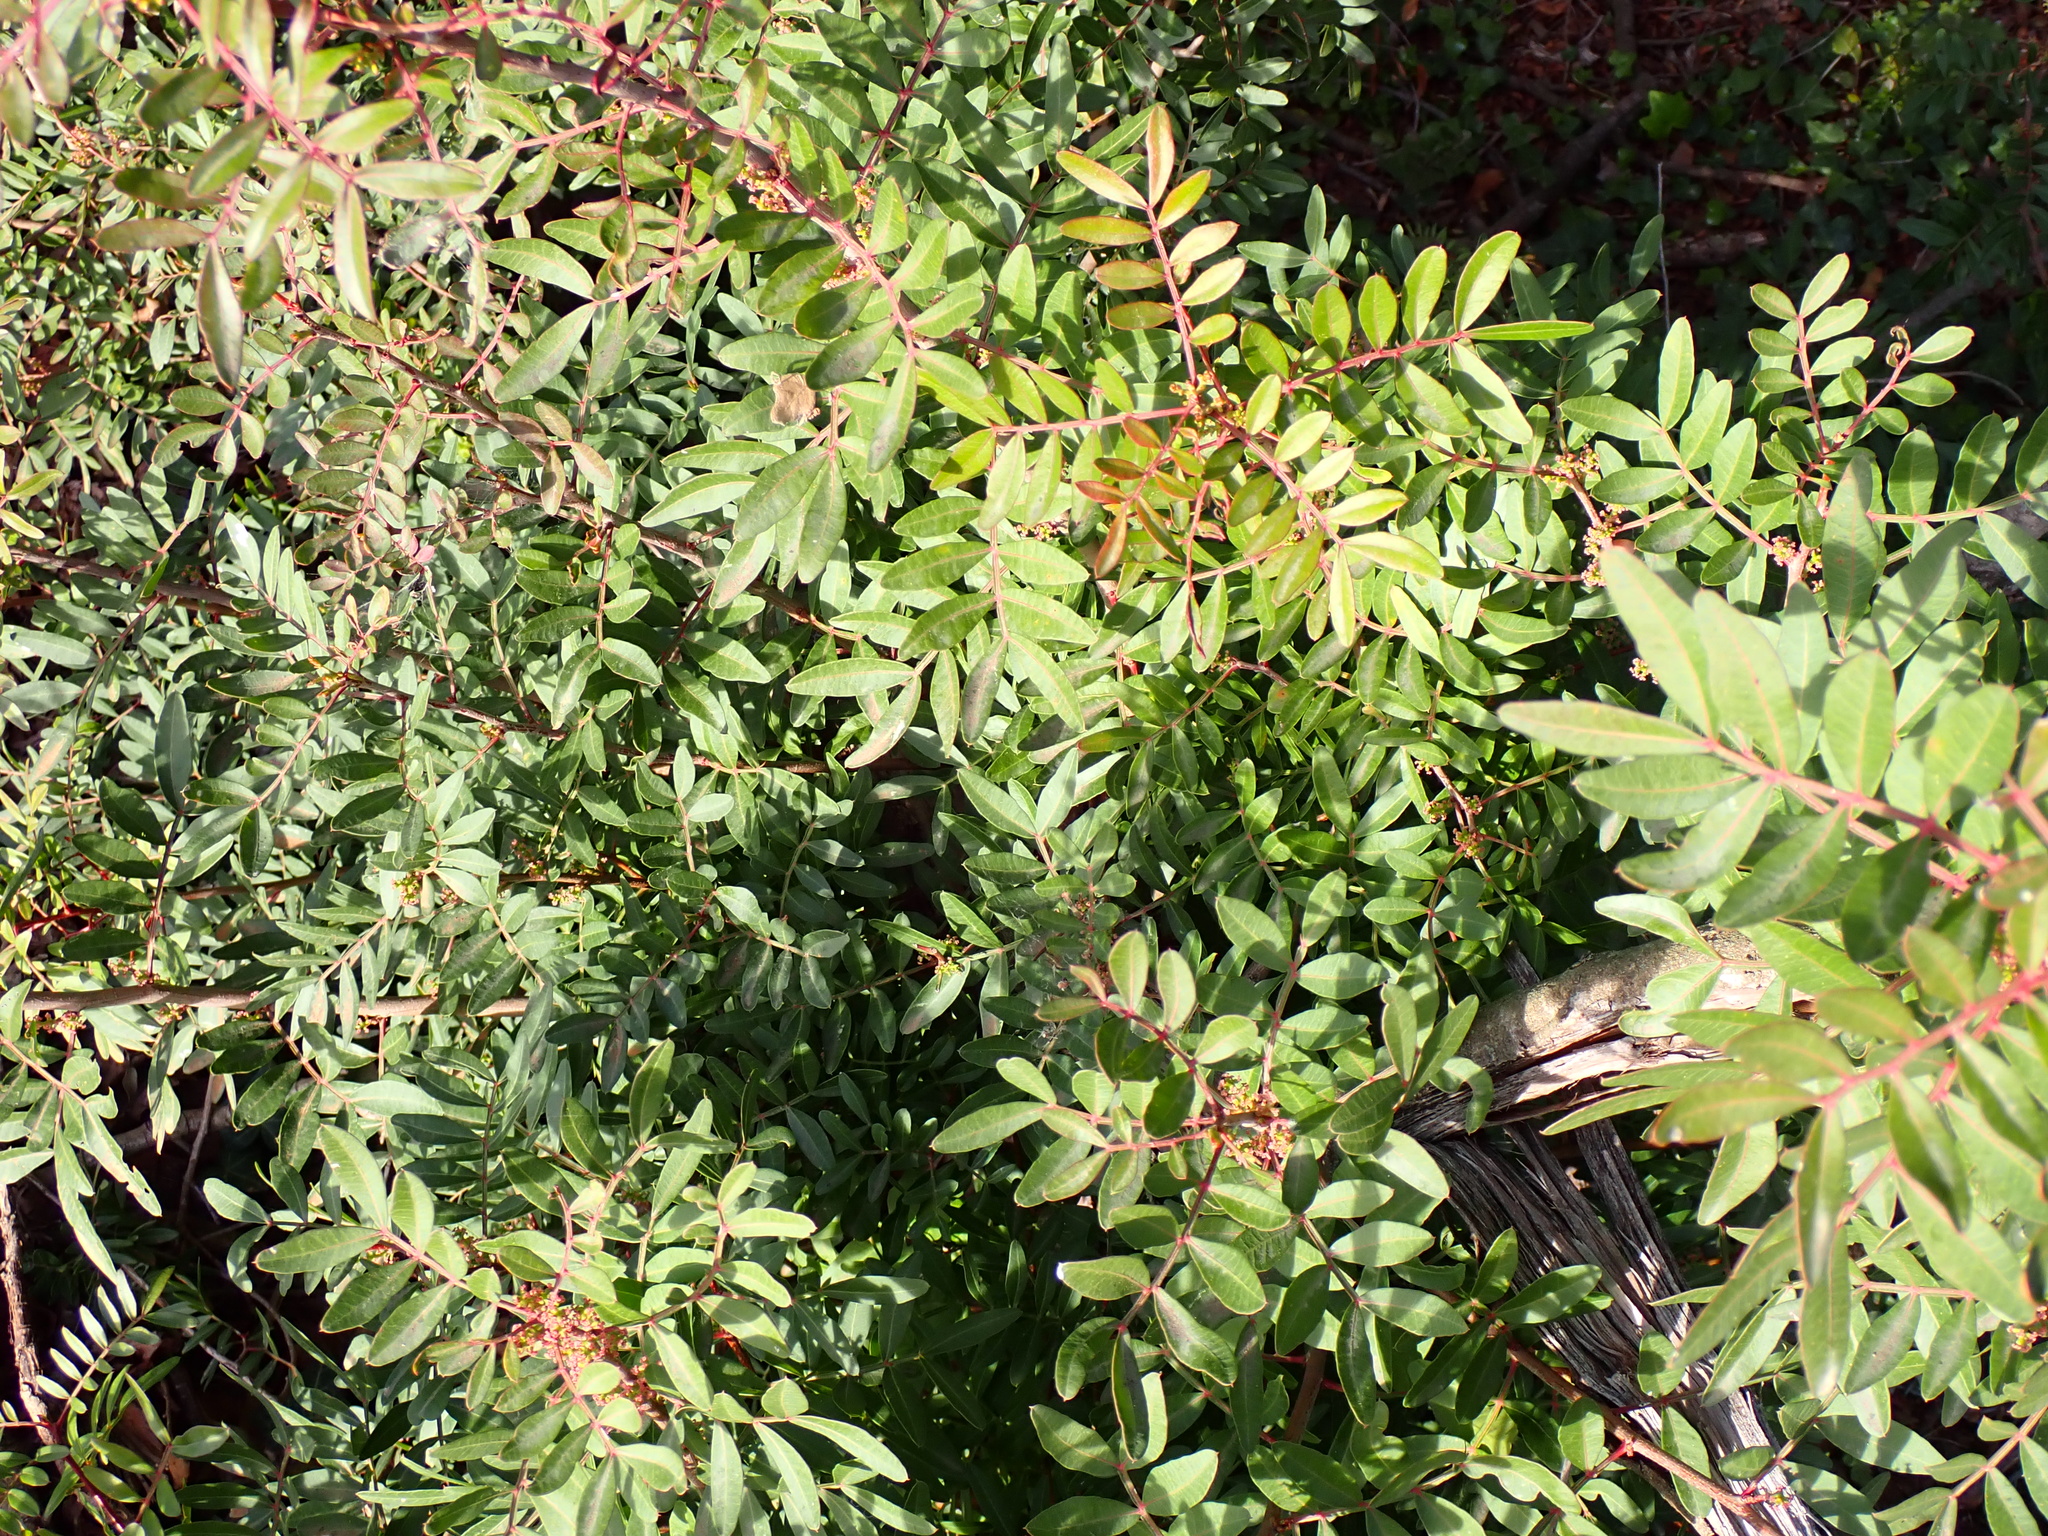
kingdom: Plantae
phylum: Tracheophyta
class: Magnoliopsida
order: Sapindales
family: Anacardiaceae
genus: Pistacia
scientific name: Pistacia lentiscus
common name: Lentisk
